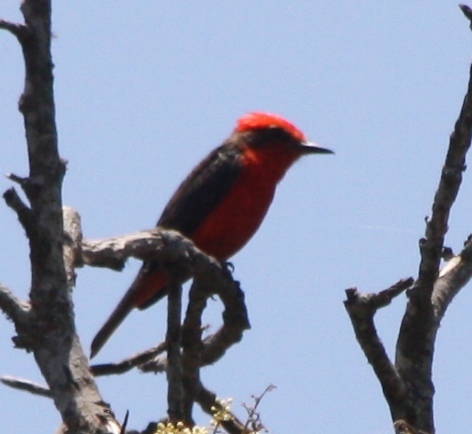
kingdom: Animalia
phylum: Chordata
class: Aves
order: Passeriformes
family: Tyrannidae
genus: Pyrocephalus
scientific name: Pyrocephalus rubinus
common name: Vermilion flycatcher
